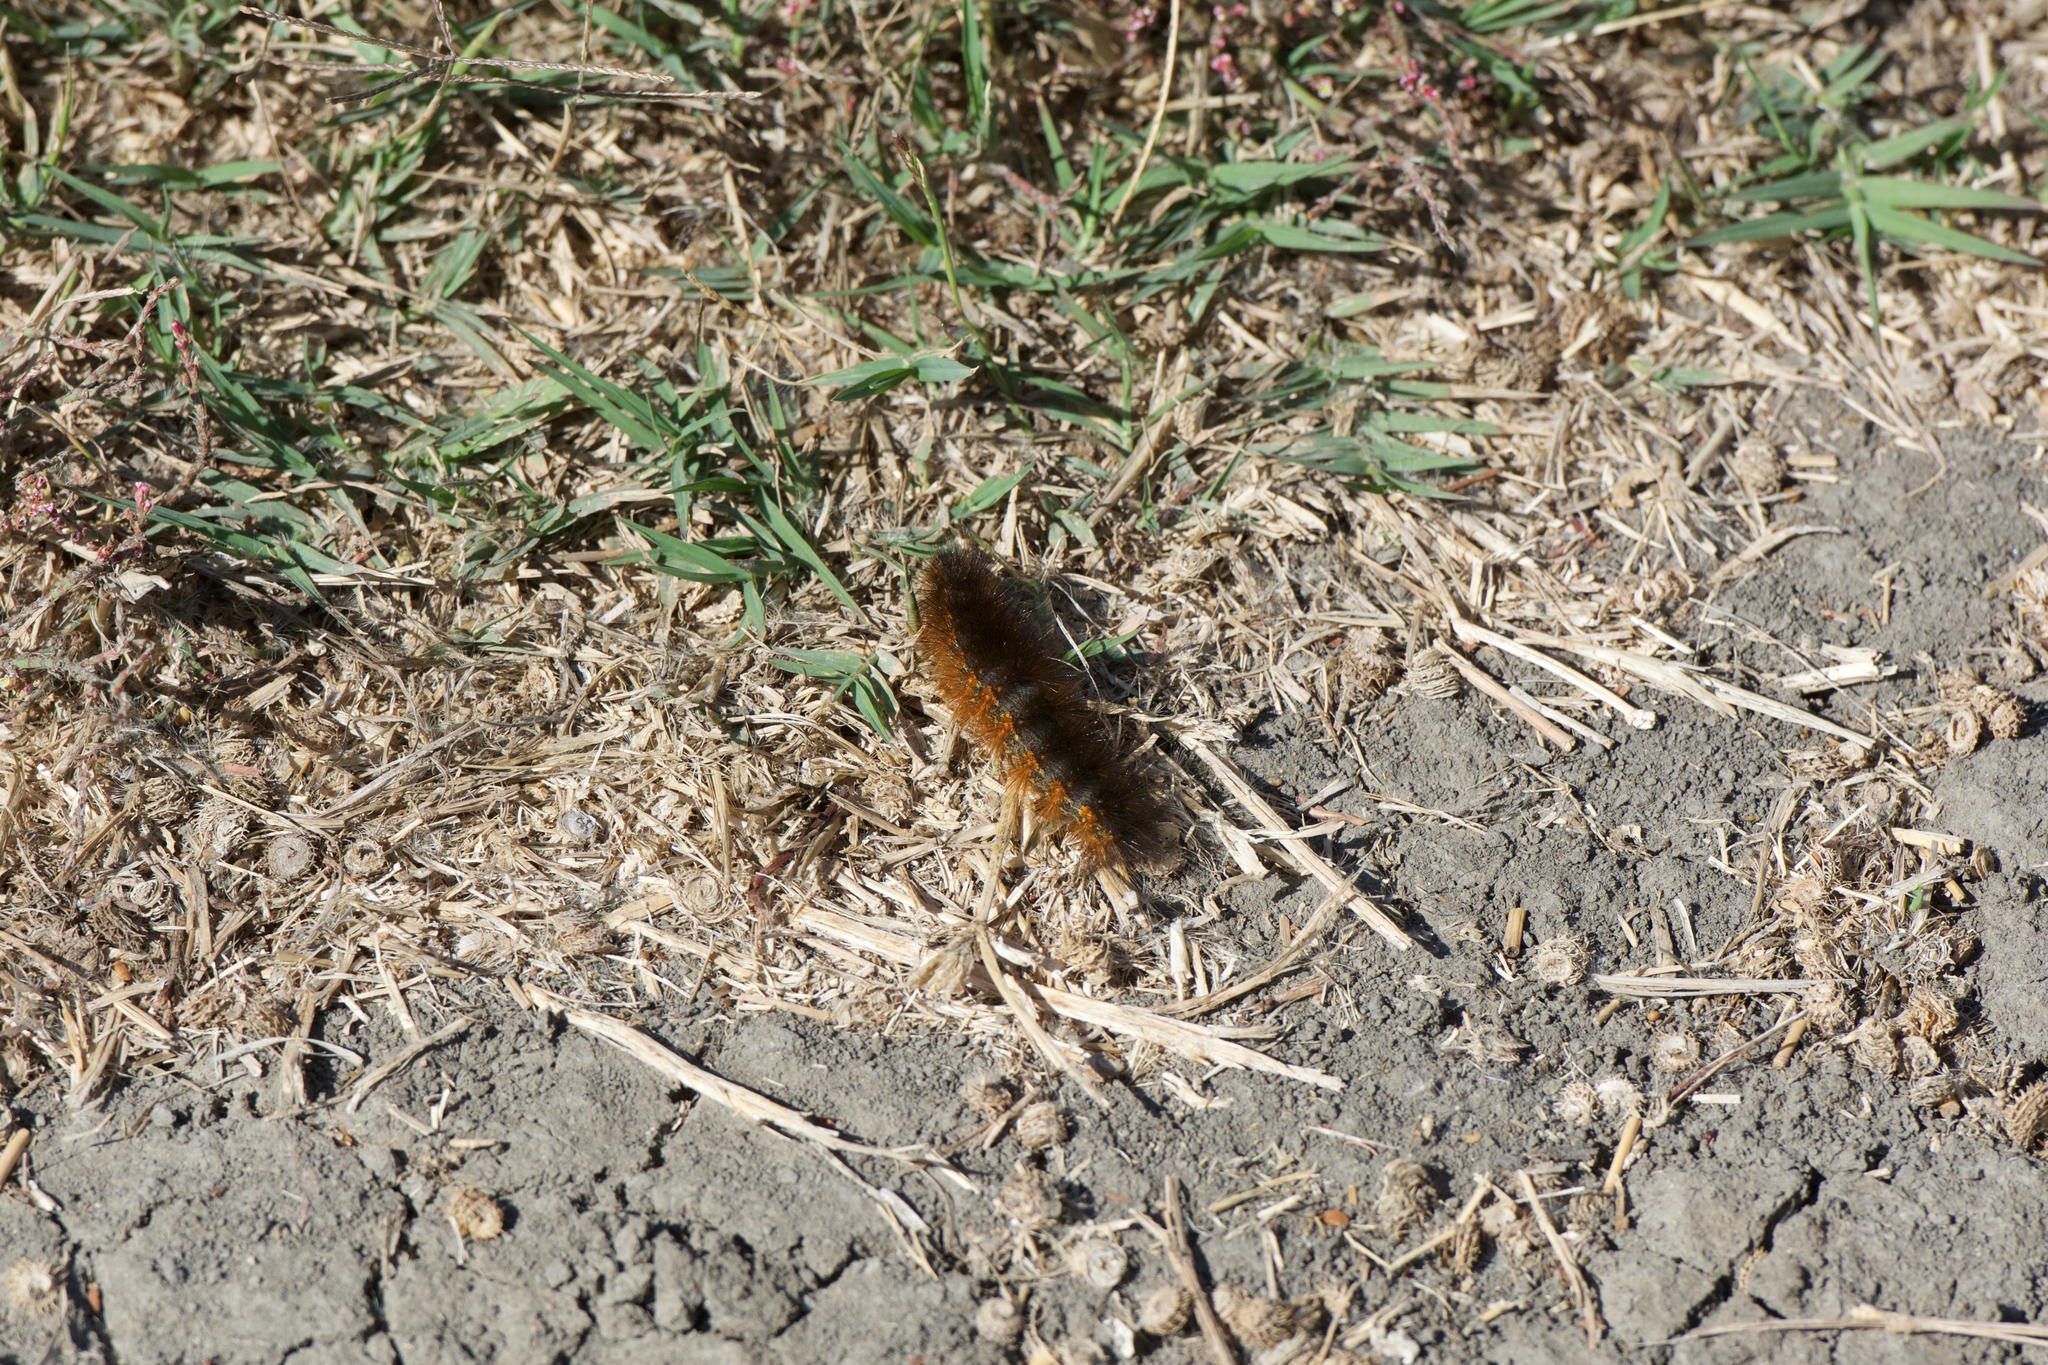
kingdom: Animalia
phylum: Arthropoda
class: Insecta
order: Lepidoptera
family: Erebidae
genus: Estigmene
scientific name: Estigmene acrea
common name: Salt marsh moth
